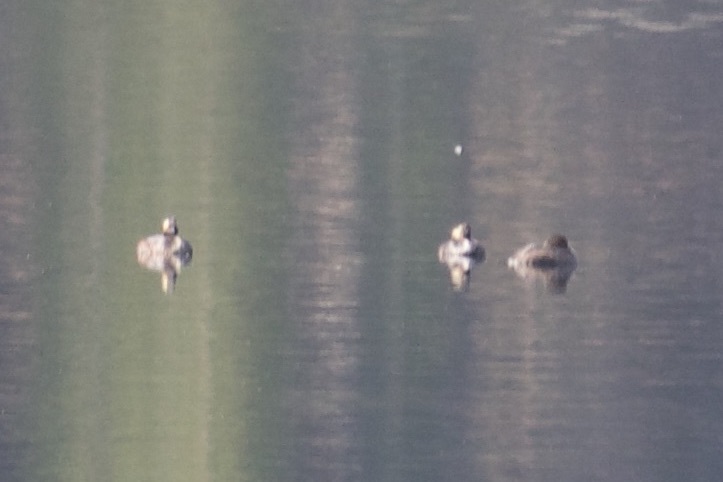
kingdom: Animalia
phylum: Chordata
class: Aves
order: Podicipediformes
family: Podicipedidae
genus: Podiceps
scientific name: Podiceps nigricollis
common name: Black-necked grebe
